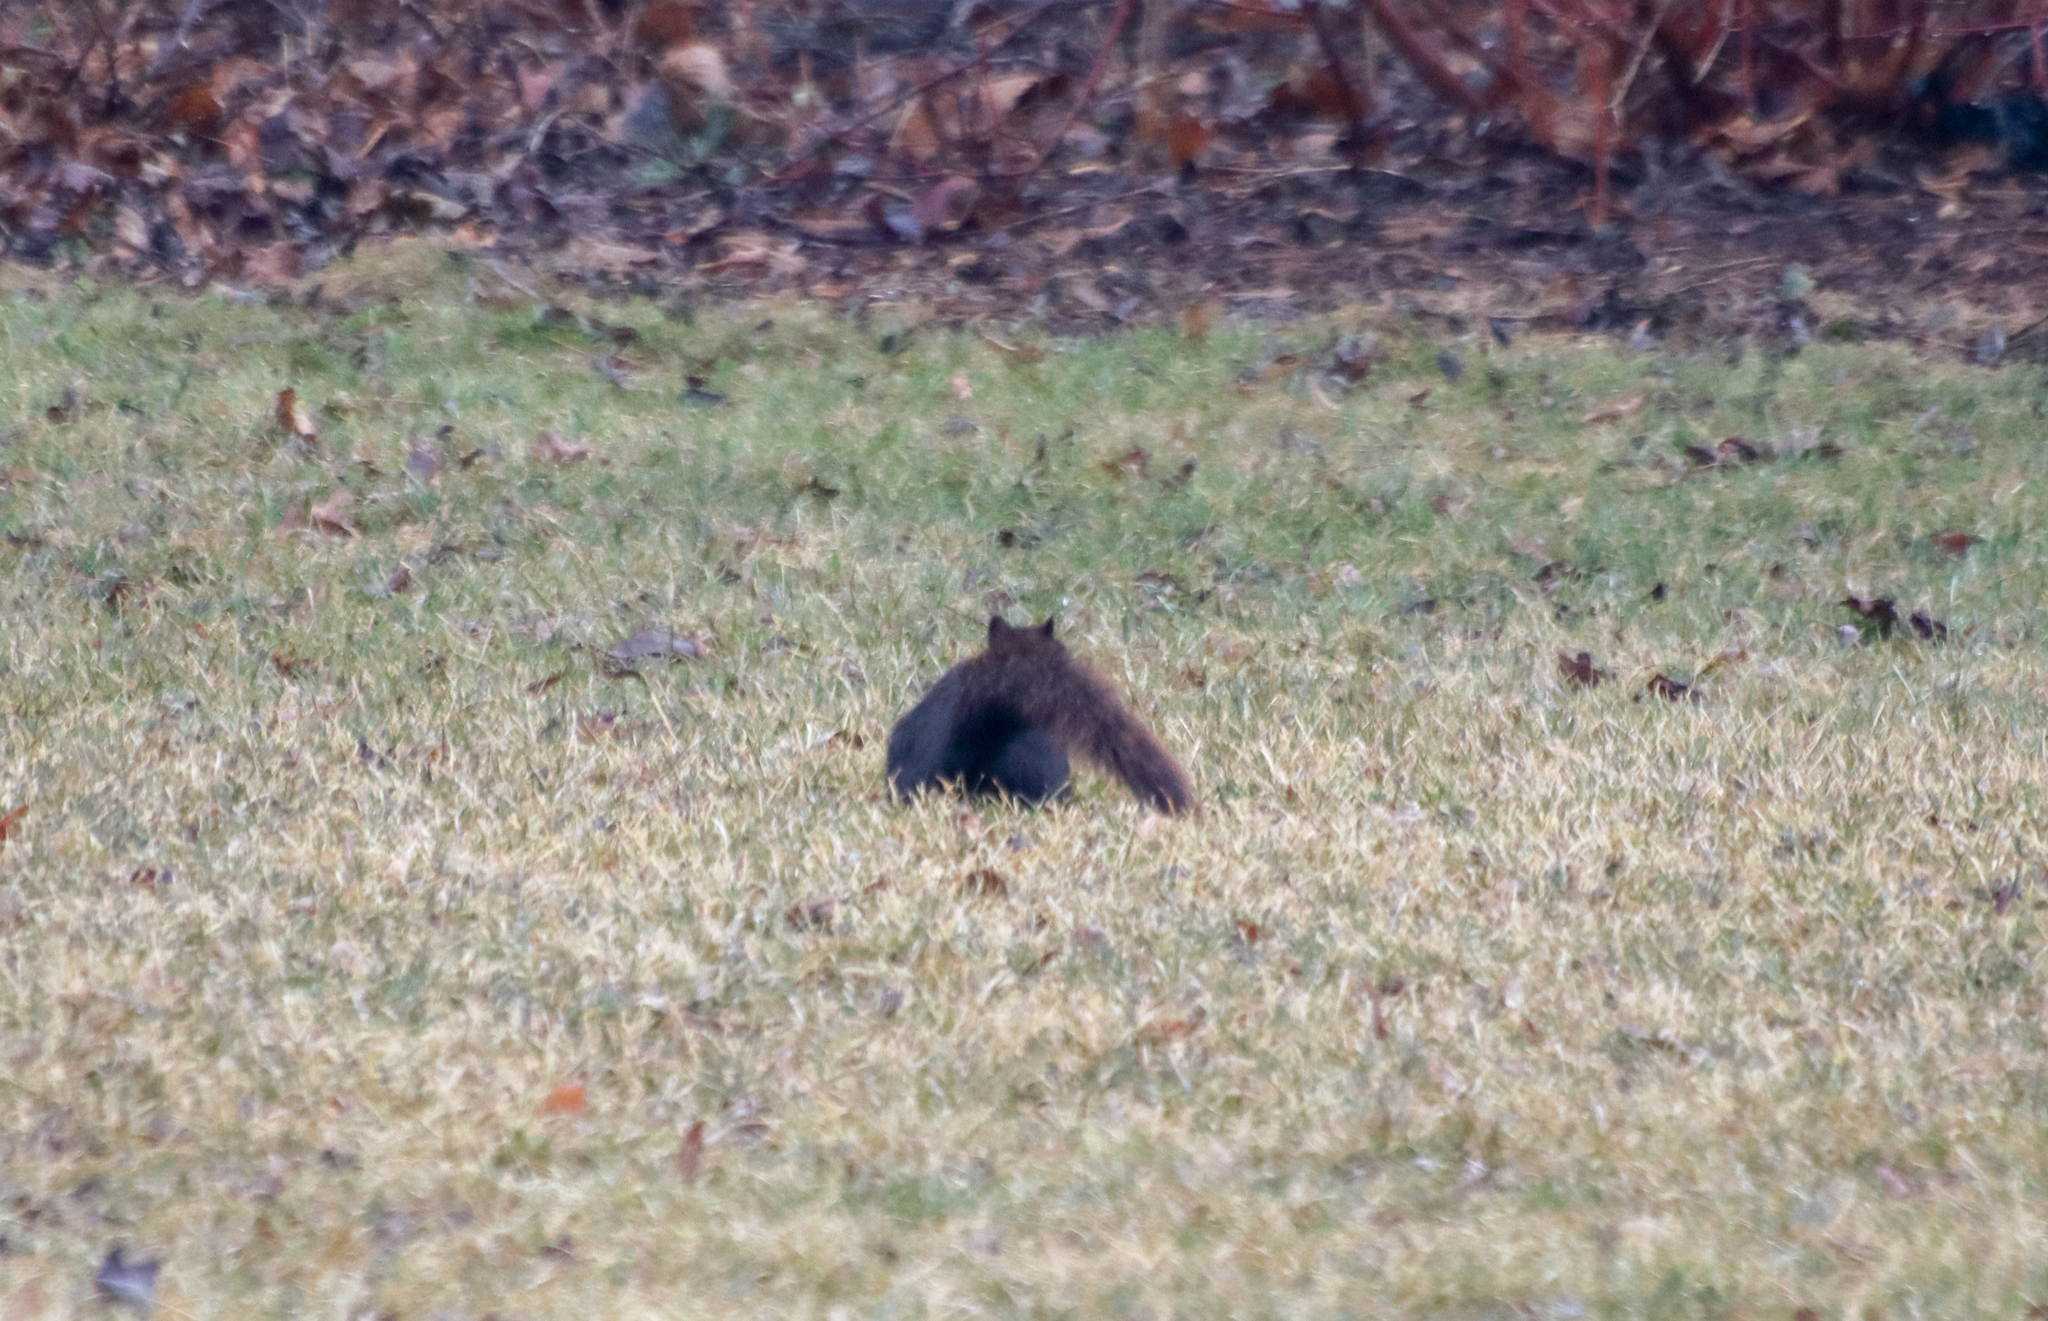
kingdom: Animalia
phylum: Chordata
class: Mammalia
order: Rodentia
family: Sciuridae
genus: Sciurus
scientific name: Sciurus carolinensis
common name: Eastern gray squirrel
